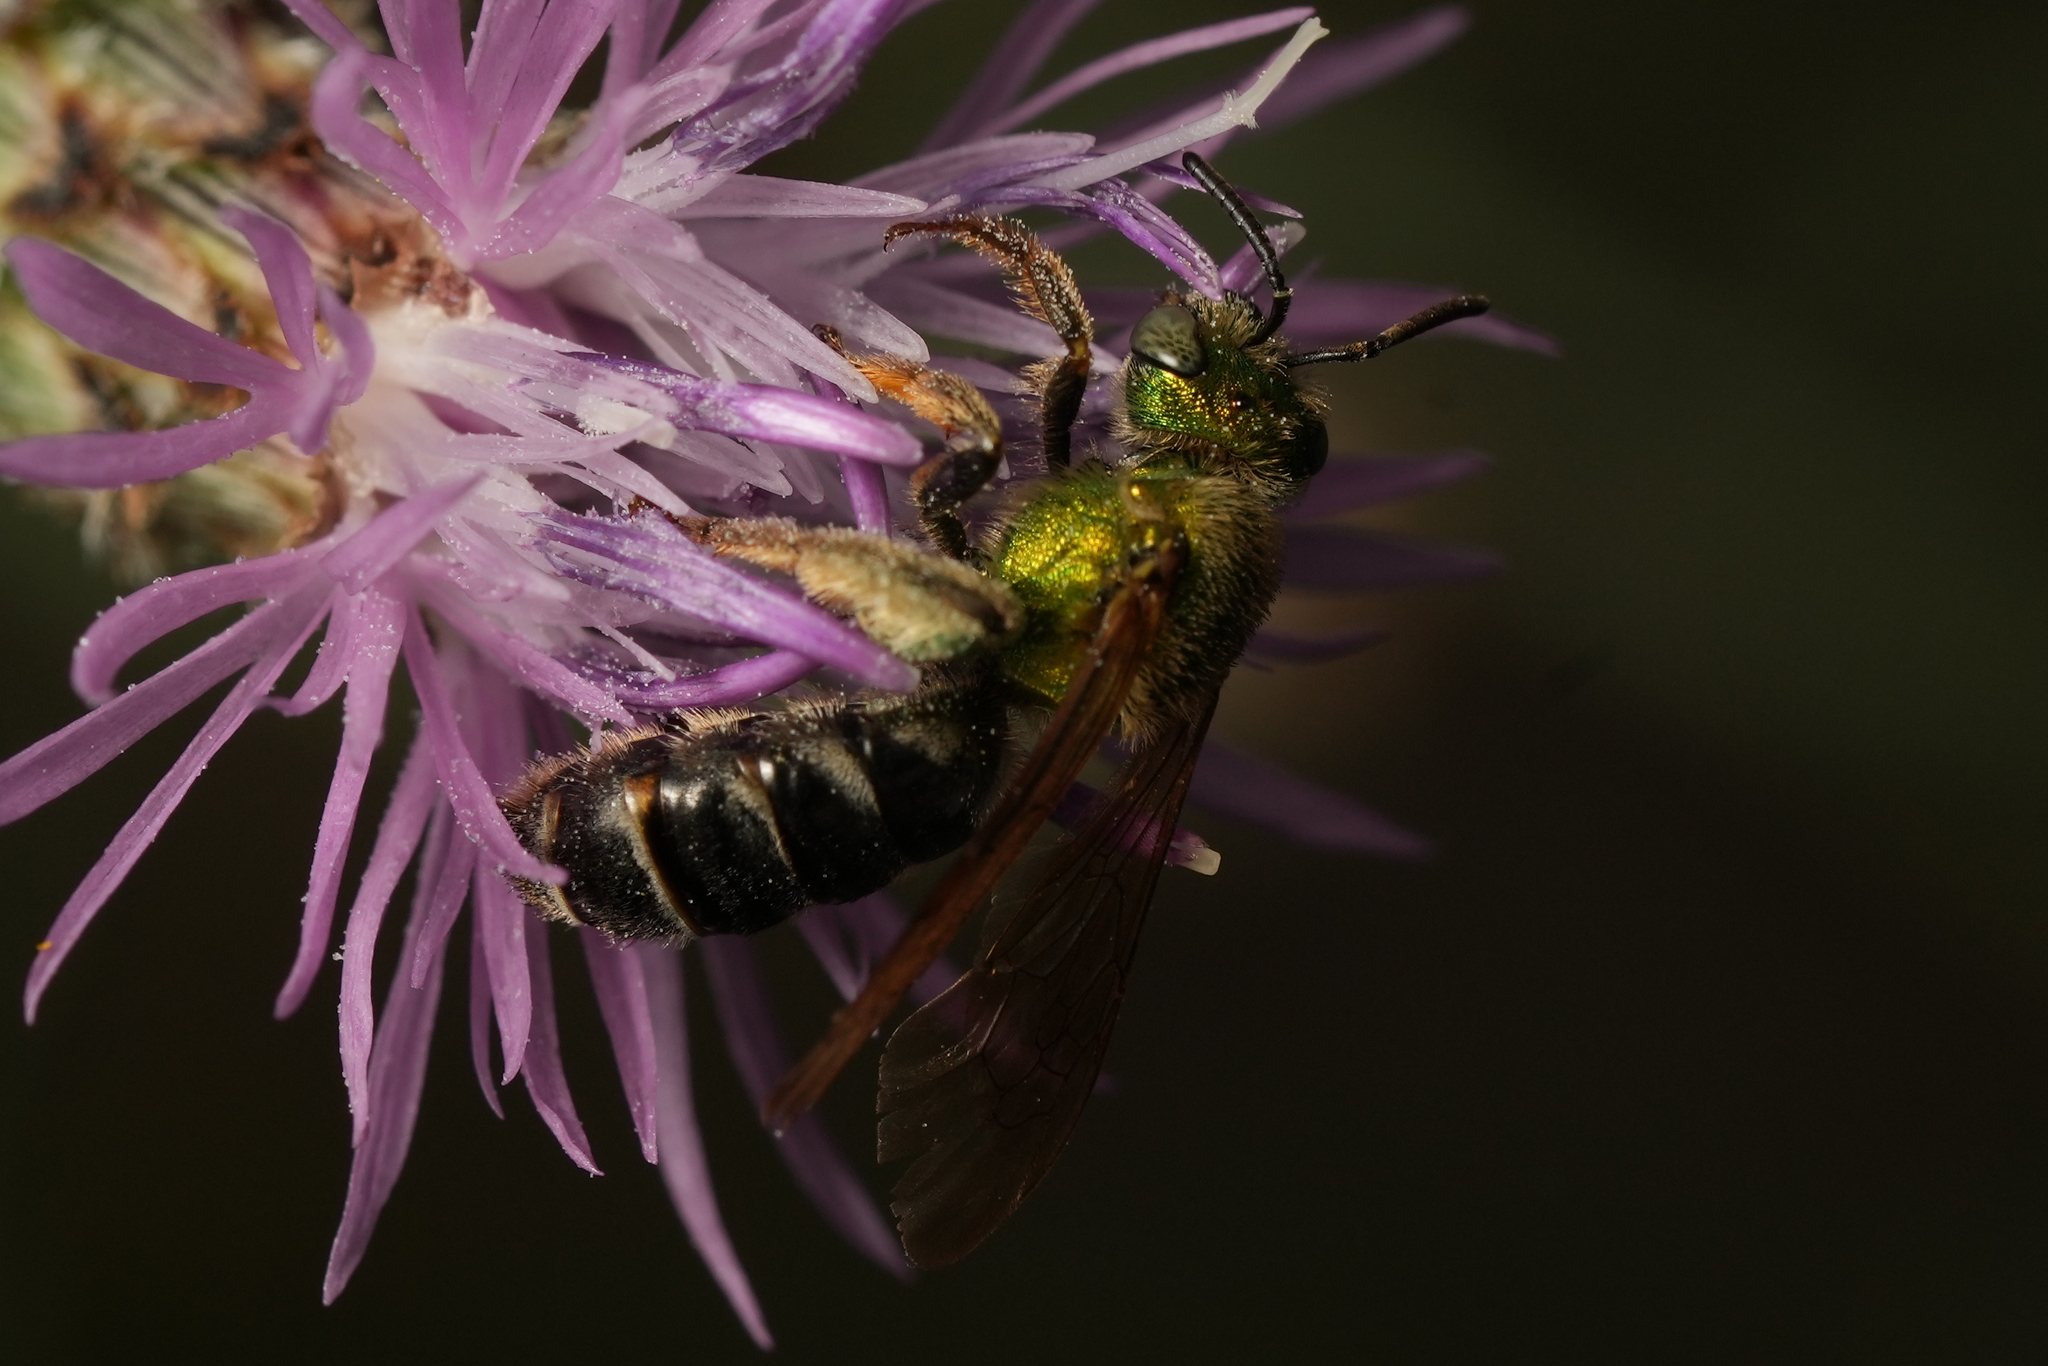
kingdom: Animalia
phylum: Arthropoda
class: Insecta
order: Hymenoptera
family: Halictidae
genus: Agapostemon
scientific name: Agapostemon virescens
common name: Bicolored striped sweat bee
